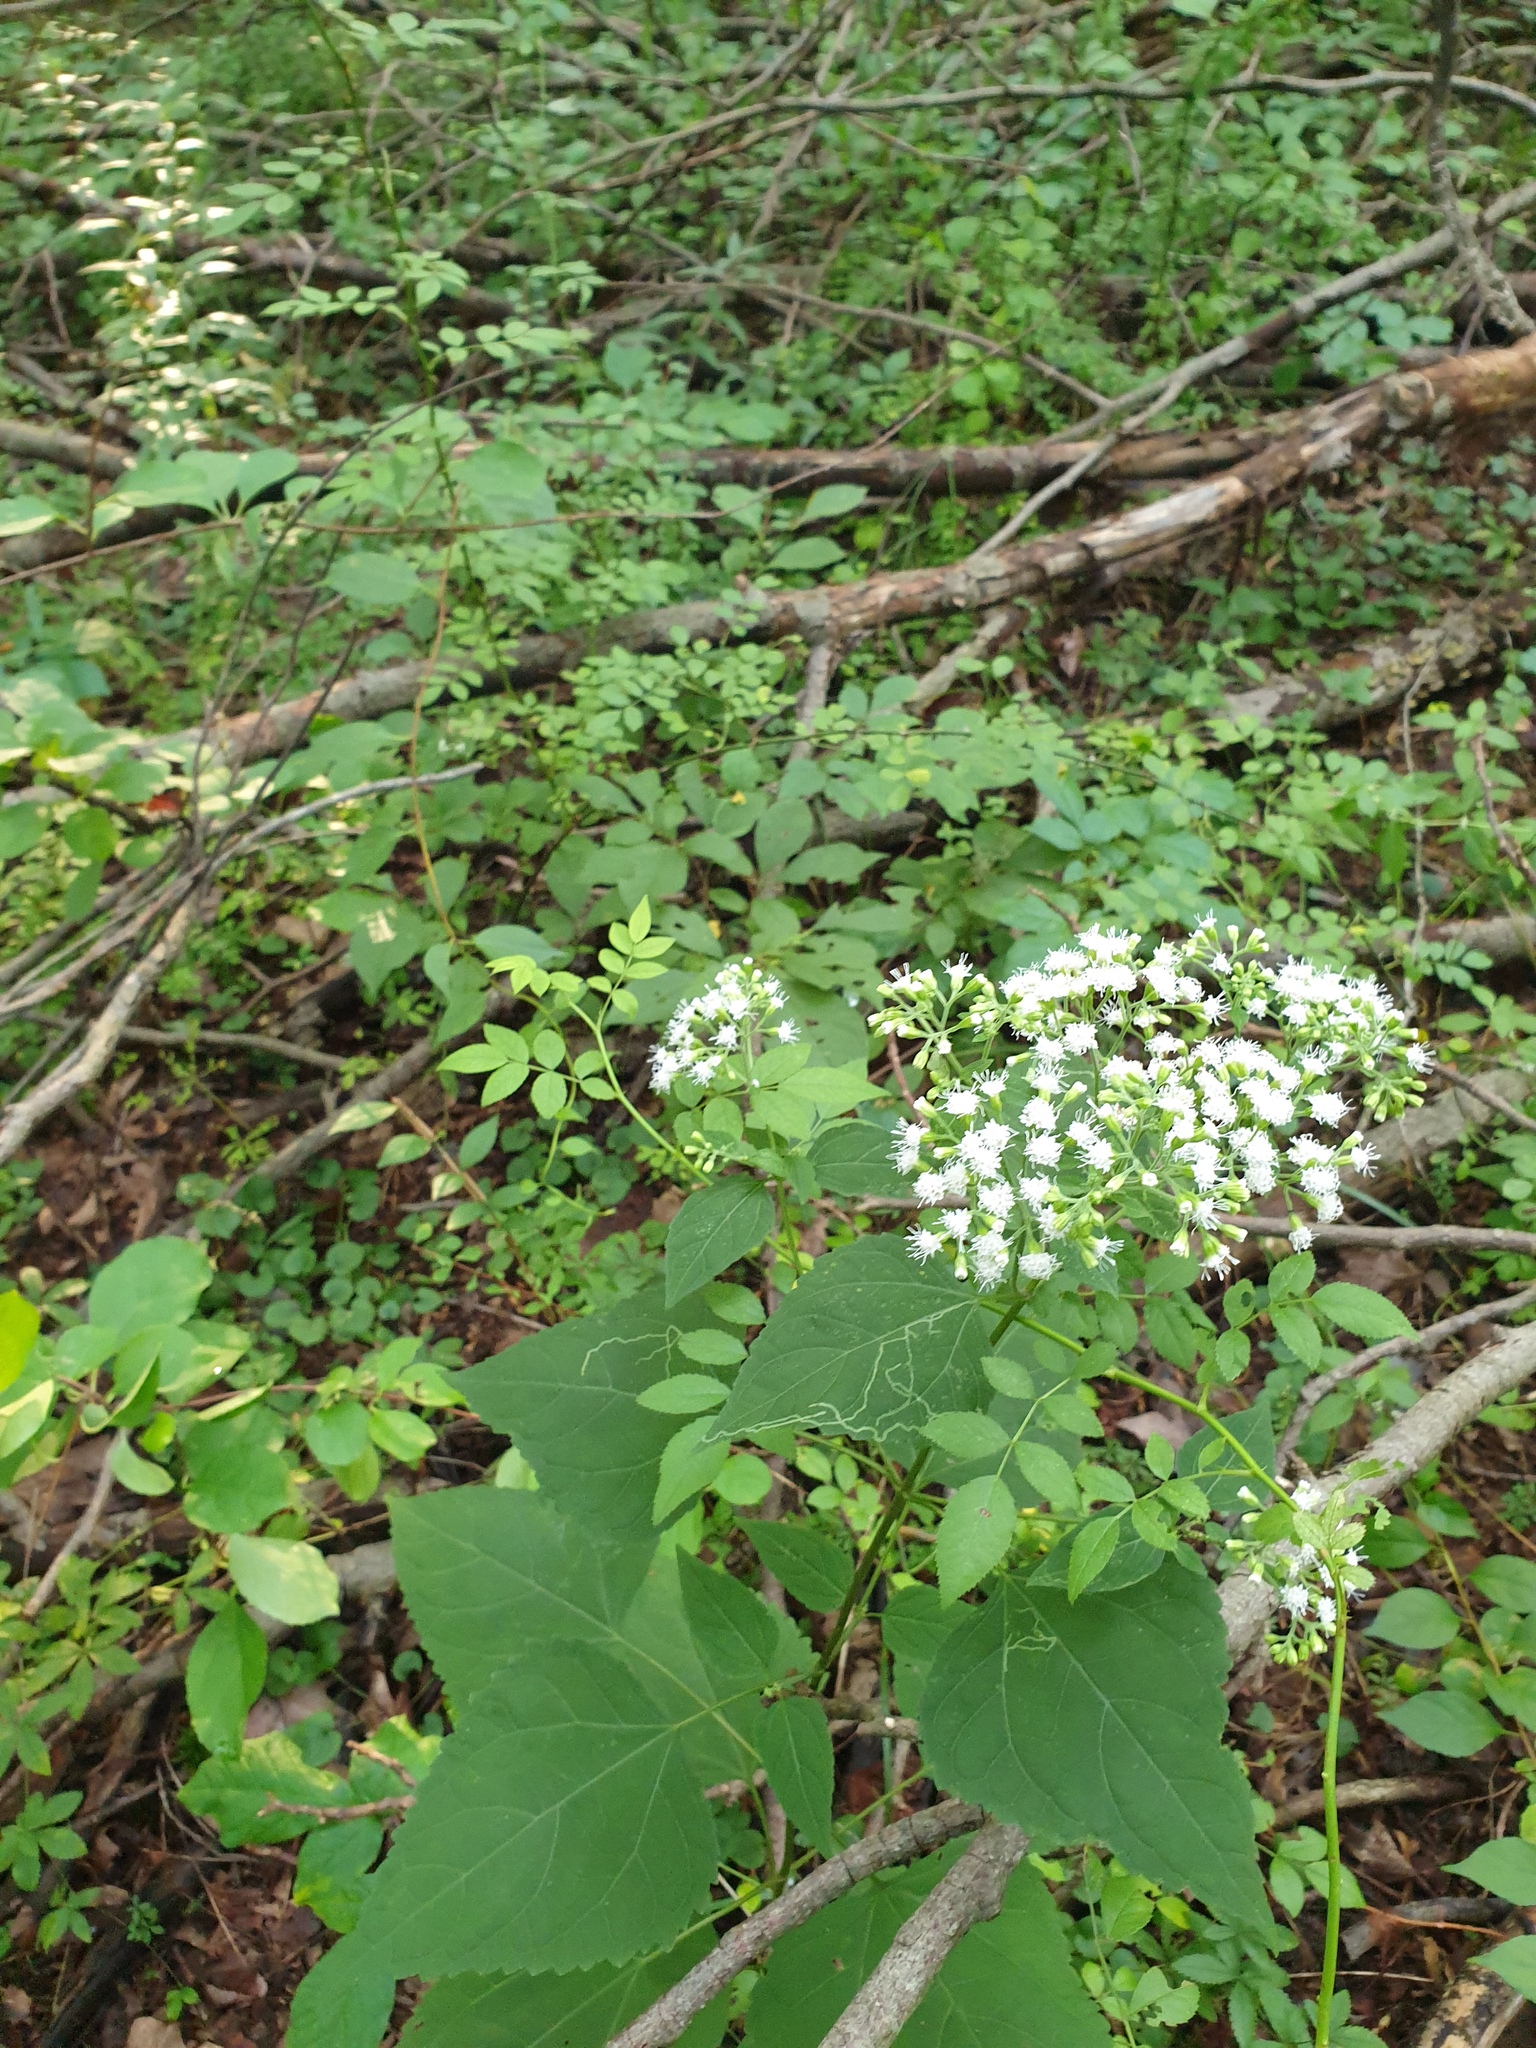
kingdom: Plantae
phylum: Tracheophyta
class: Magnoliopsida
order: Asterales
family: Asteraceae
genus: Ageratina
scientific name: Ageratina altissima
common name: White snakeroot
